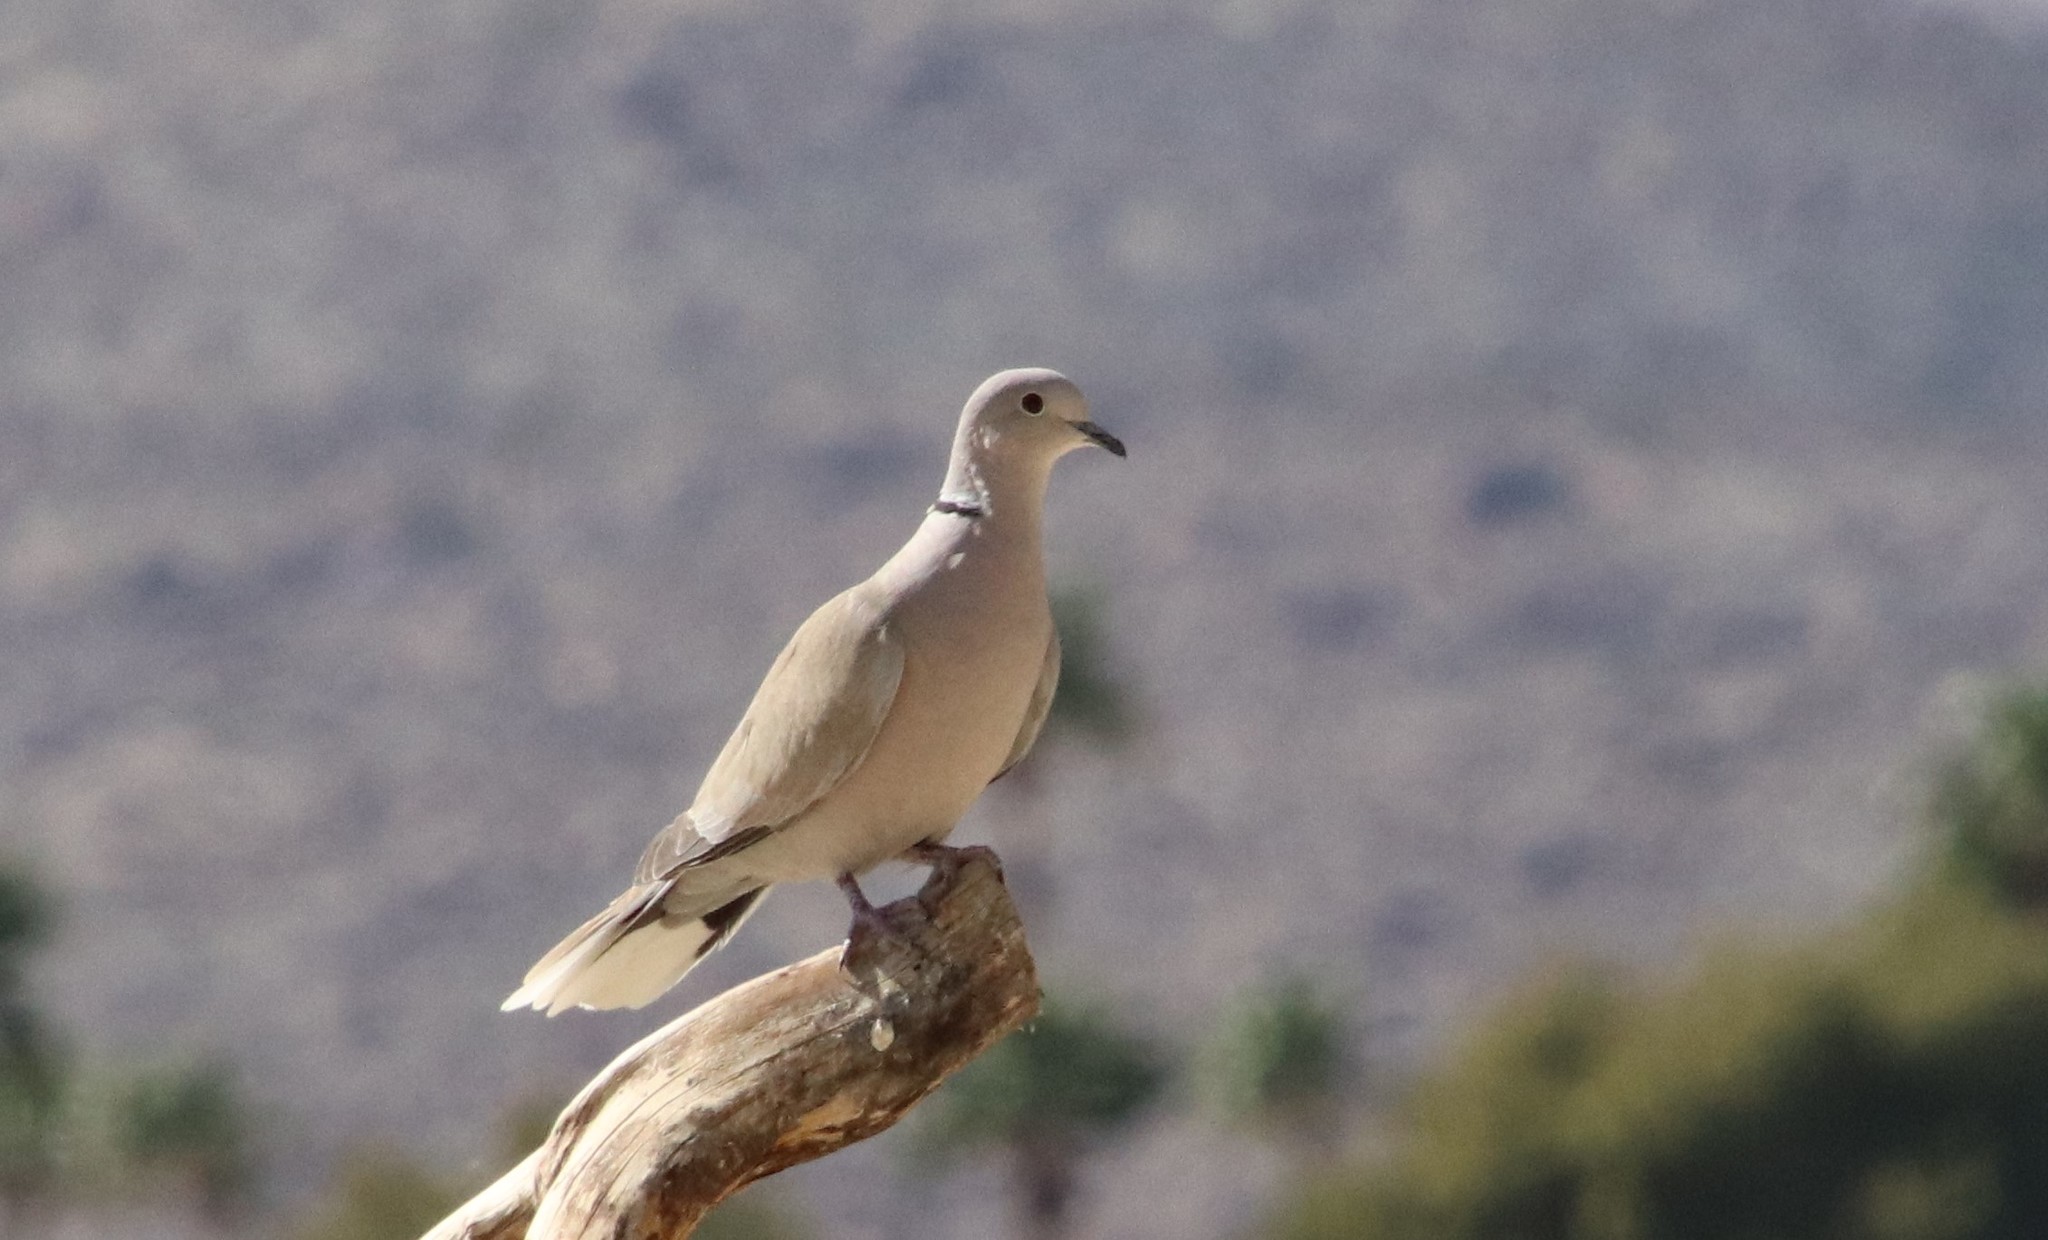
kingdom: Animalia
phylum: Chordata
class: Aves
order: Columbiformes
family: Columbidae
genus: Streptopelia
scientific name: Streptopelia decaocto
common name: Eurasian collared dove
